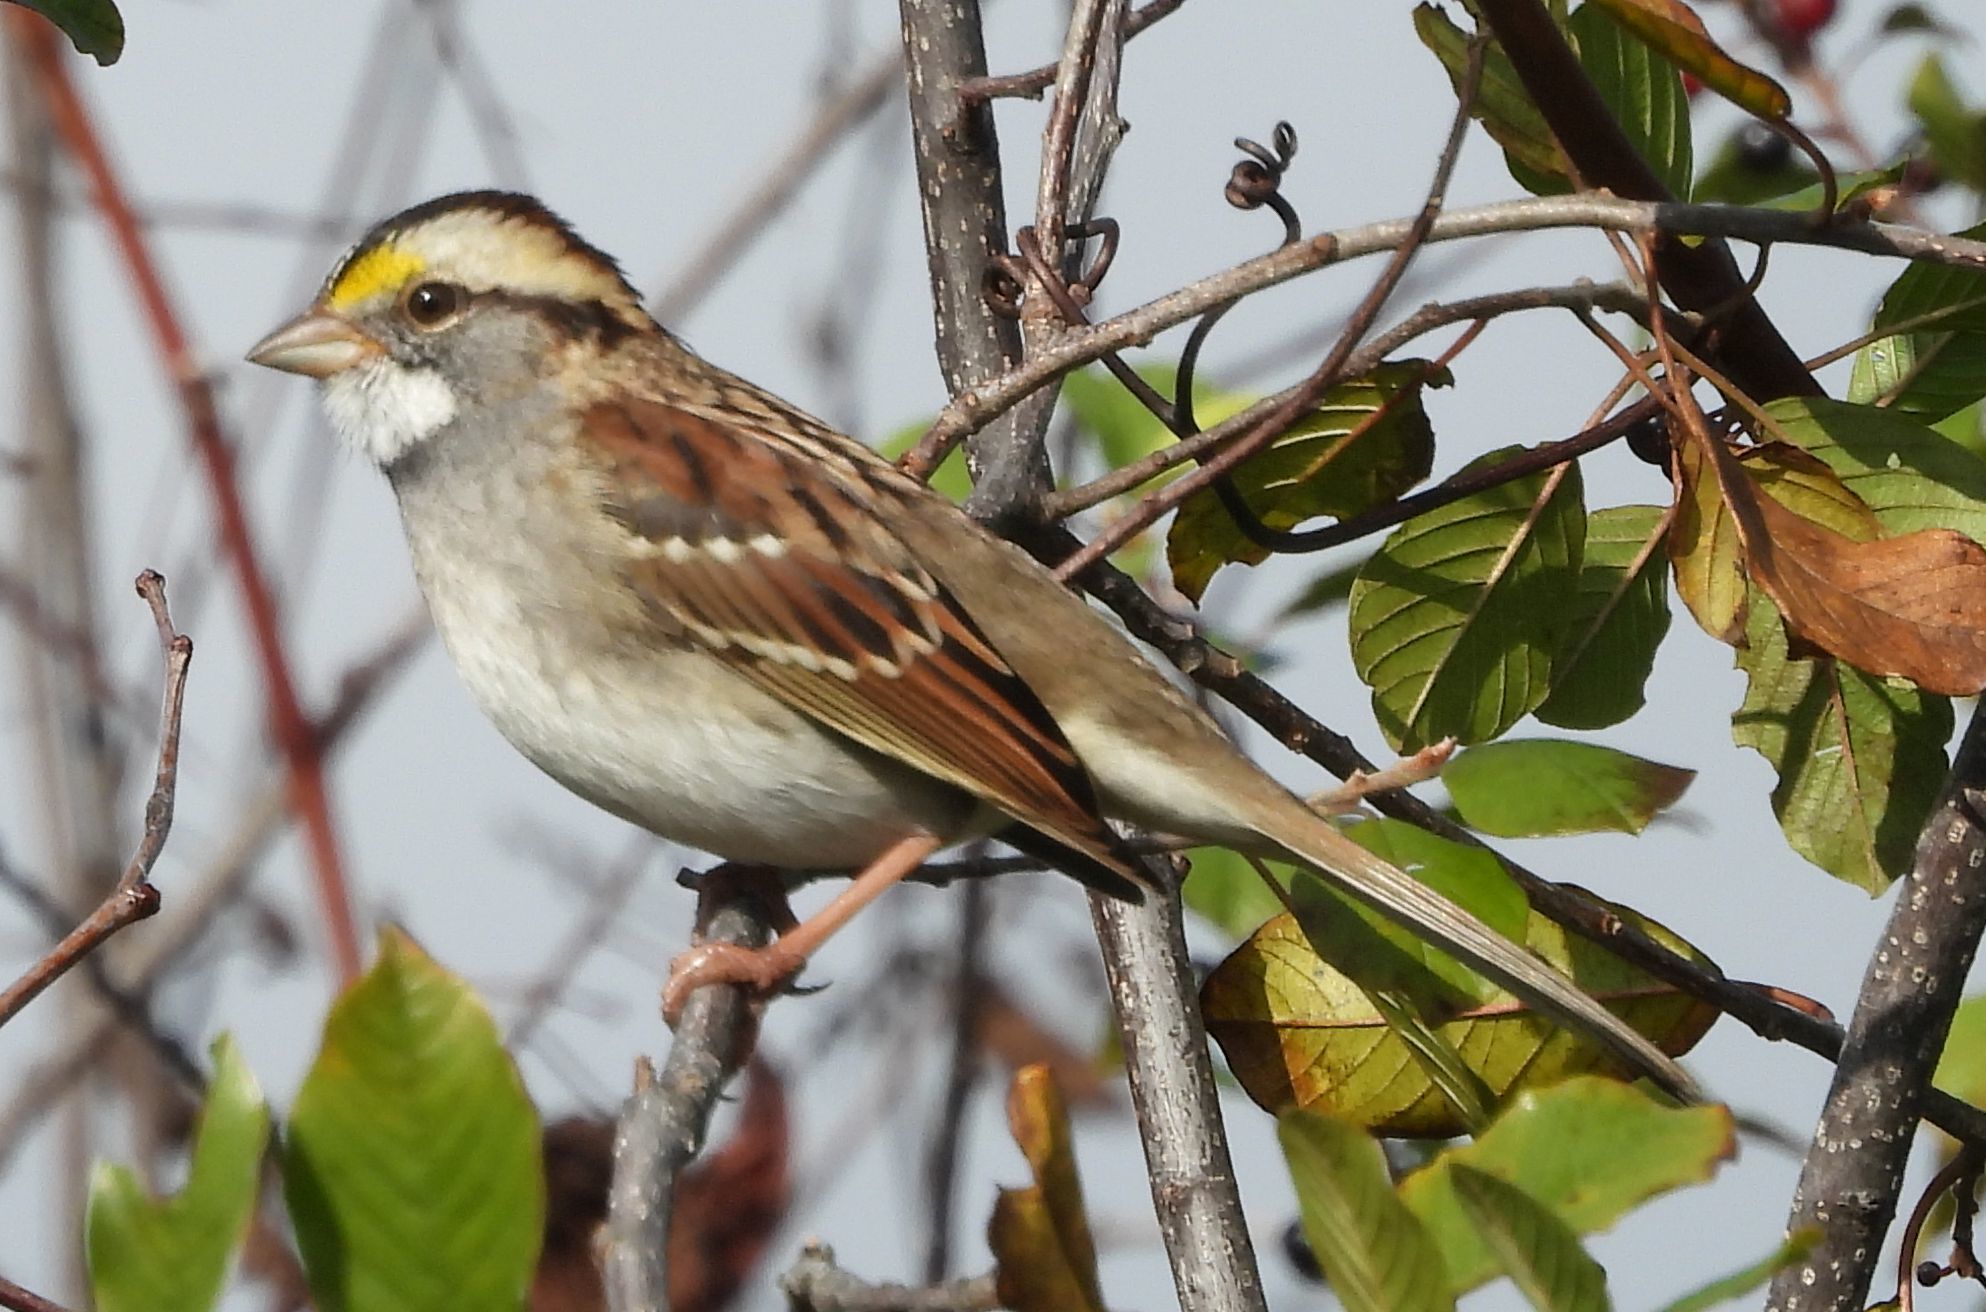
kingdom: Animalia
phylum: Chordata
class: Aves
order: Passeriformes
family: Passerellidae
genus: Zonotrichia
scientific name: Zonotrichia albicollis
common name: White-throated sparrow
